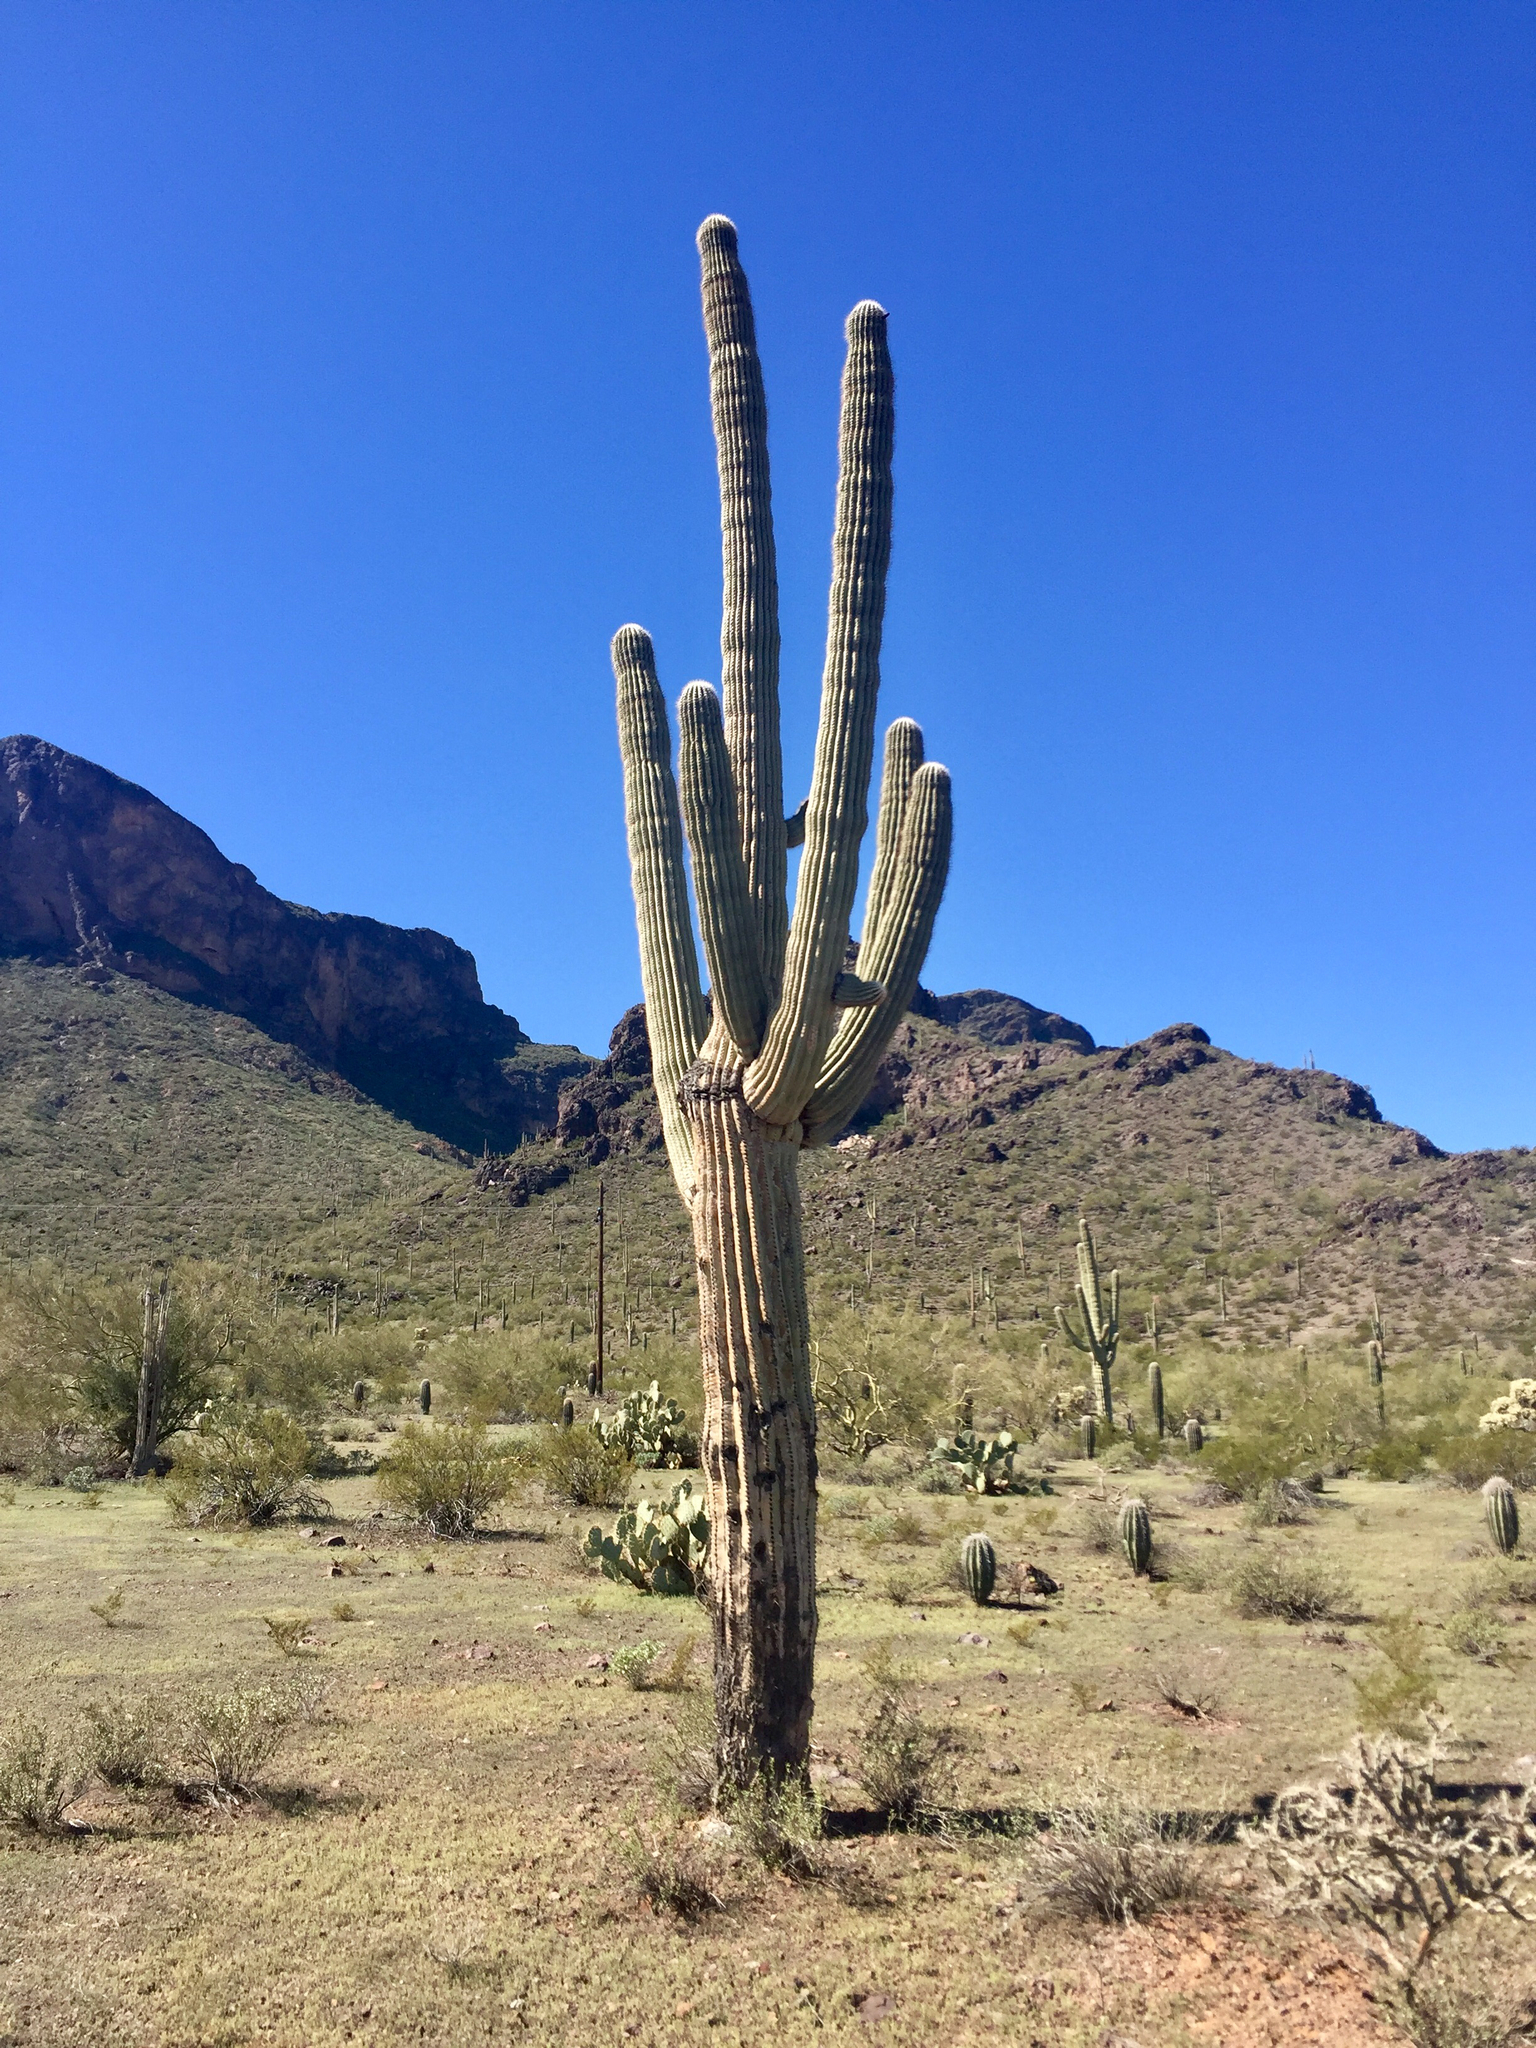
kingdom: Plantae
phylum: Tracheophyta
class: Magnoliopsida
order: Caryophyllales
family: Cactaceae
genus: Carnegiea
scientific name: Carnegiea gigantea
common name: Saguaro
